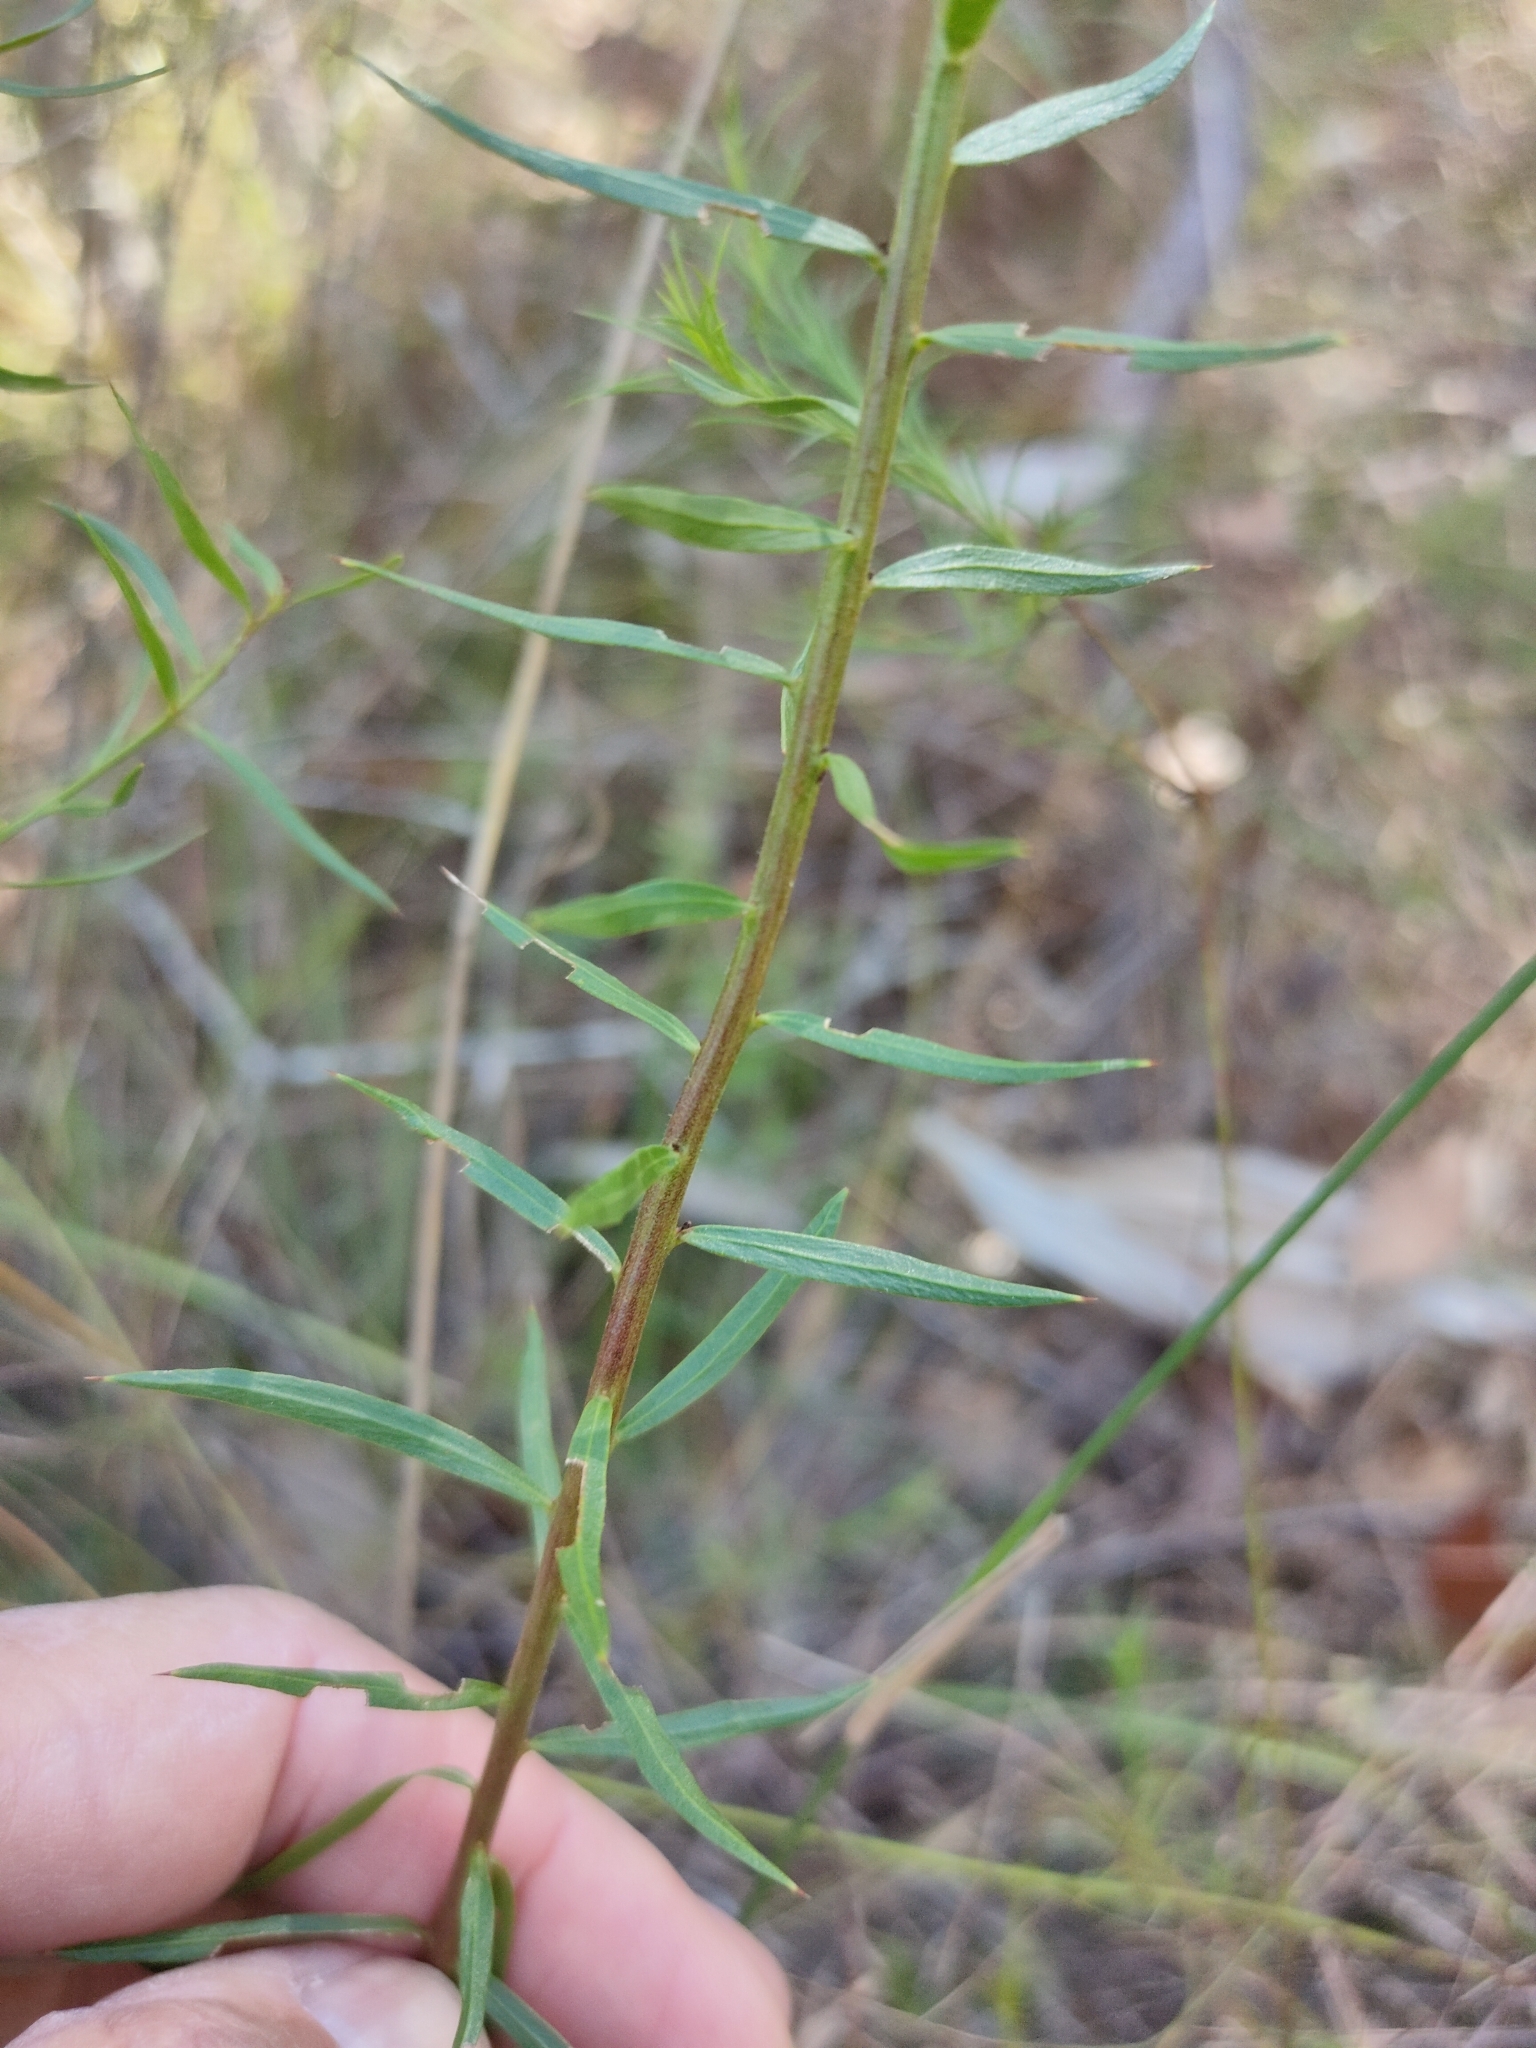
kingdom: Plantae
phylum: Tracheophyta
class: Magnoliopsida
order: Fabales
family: Fabaceae
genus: Daviesia
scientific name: Daviesia umbellulata
